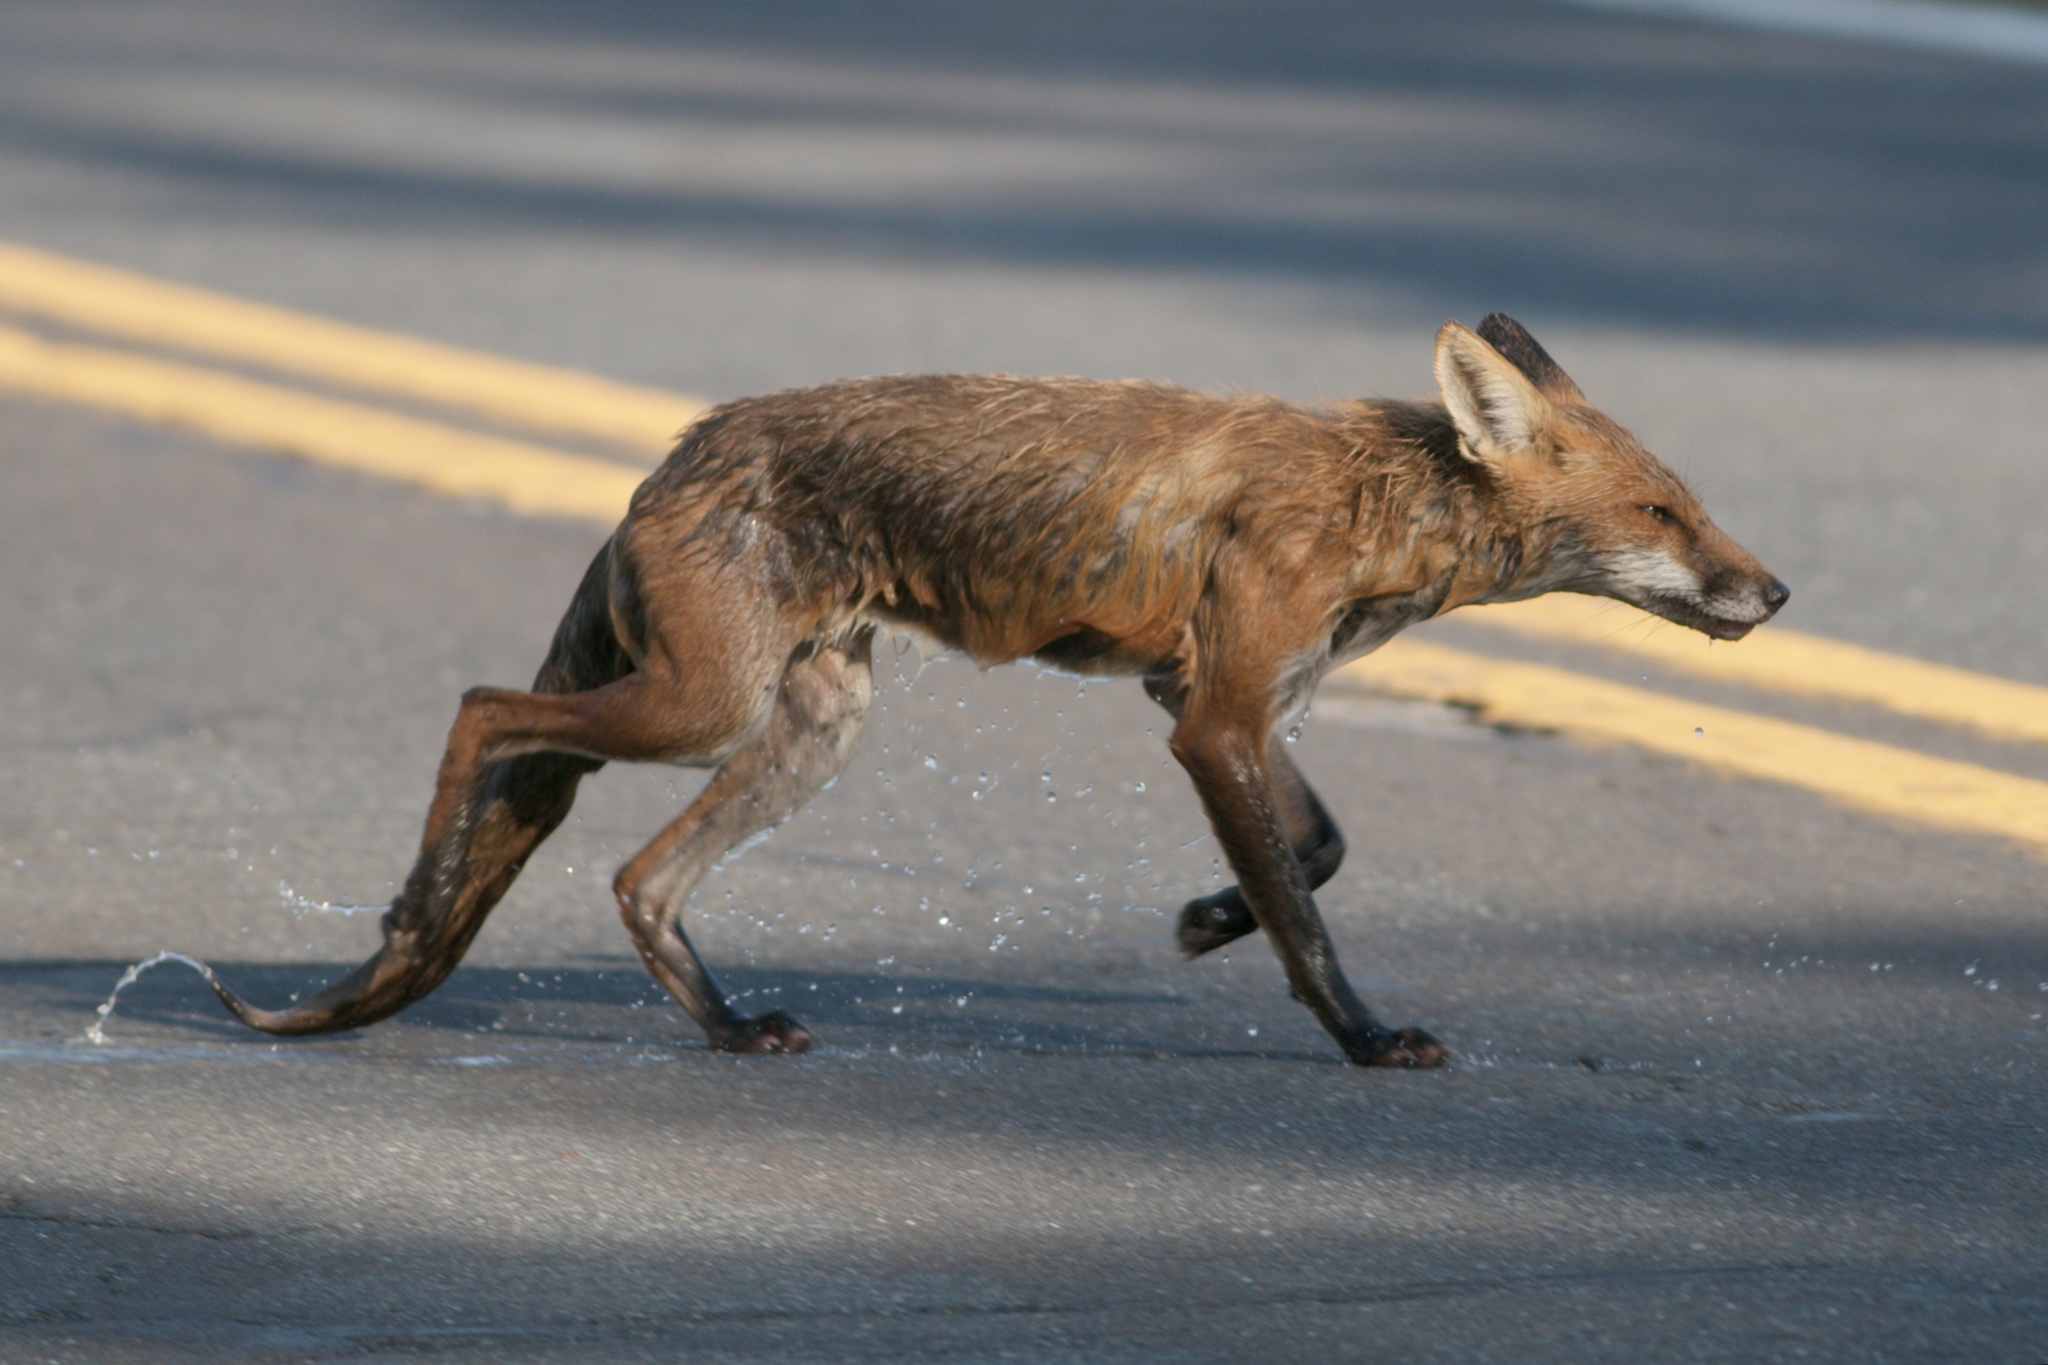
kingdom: Animalia
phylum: Chordata
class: Mammalia
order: Carnivora
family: Canidae
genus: Vulpes
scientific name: Vulpes vulpes
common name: Red fox
